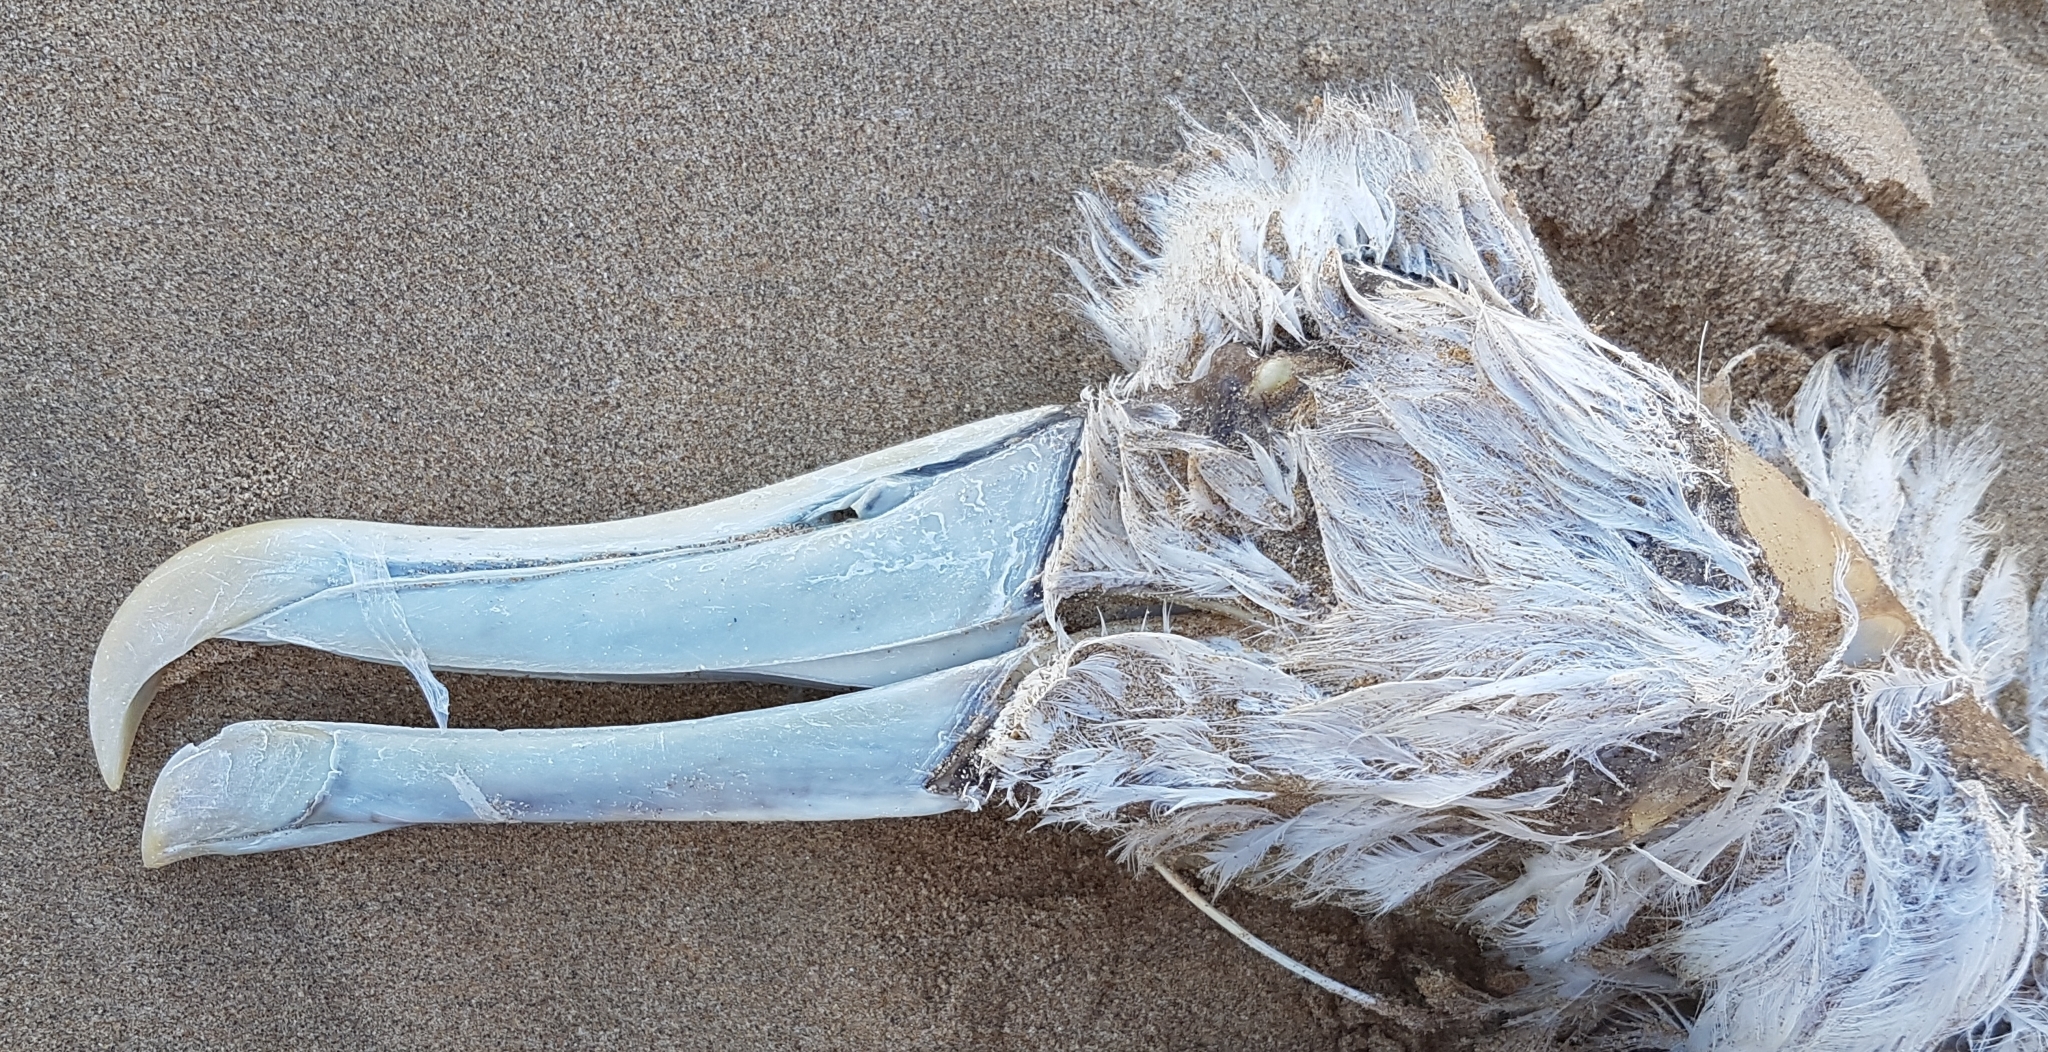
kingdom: Animalia
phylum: Chordata
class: Aves
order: Procellariiformes
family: Diomedeidae
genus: Thalassarche
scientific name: Thalassarche cauta
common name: Shy albatross
